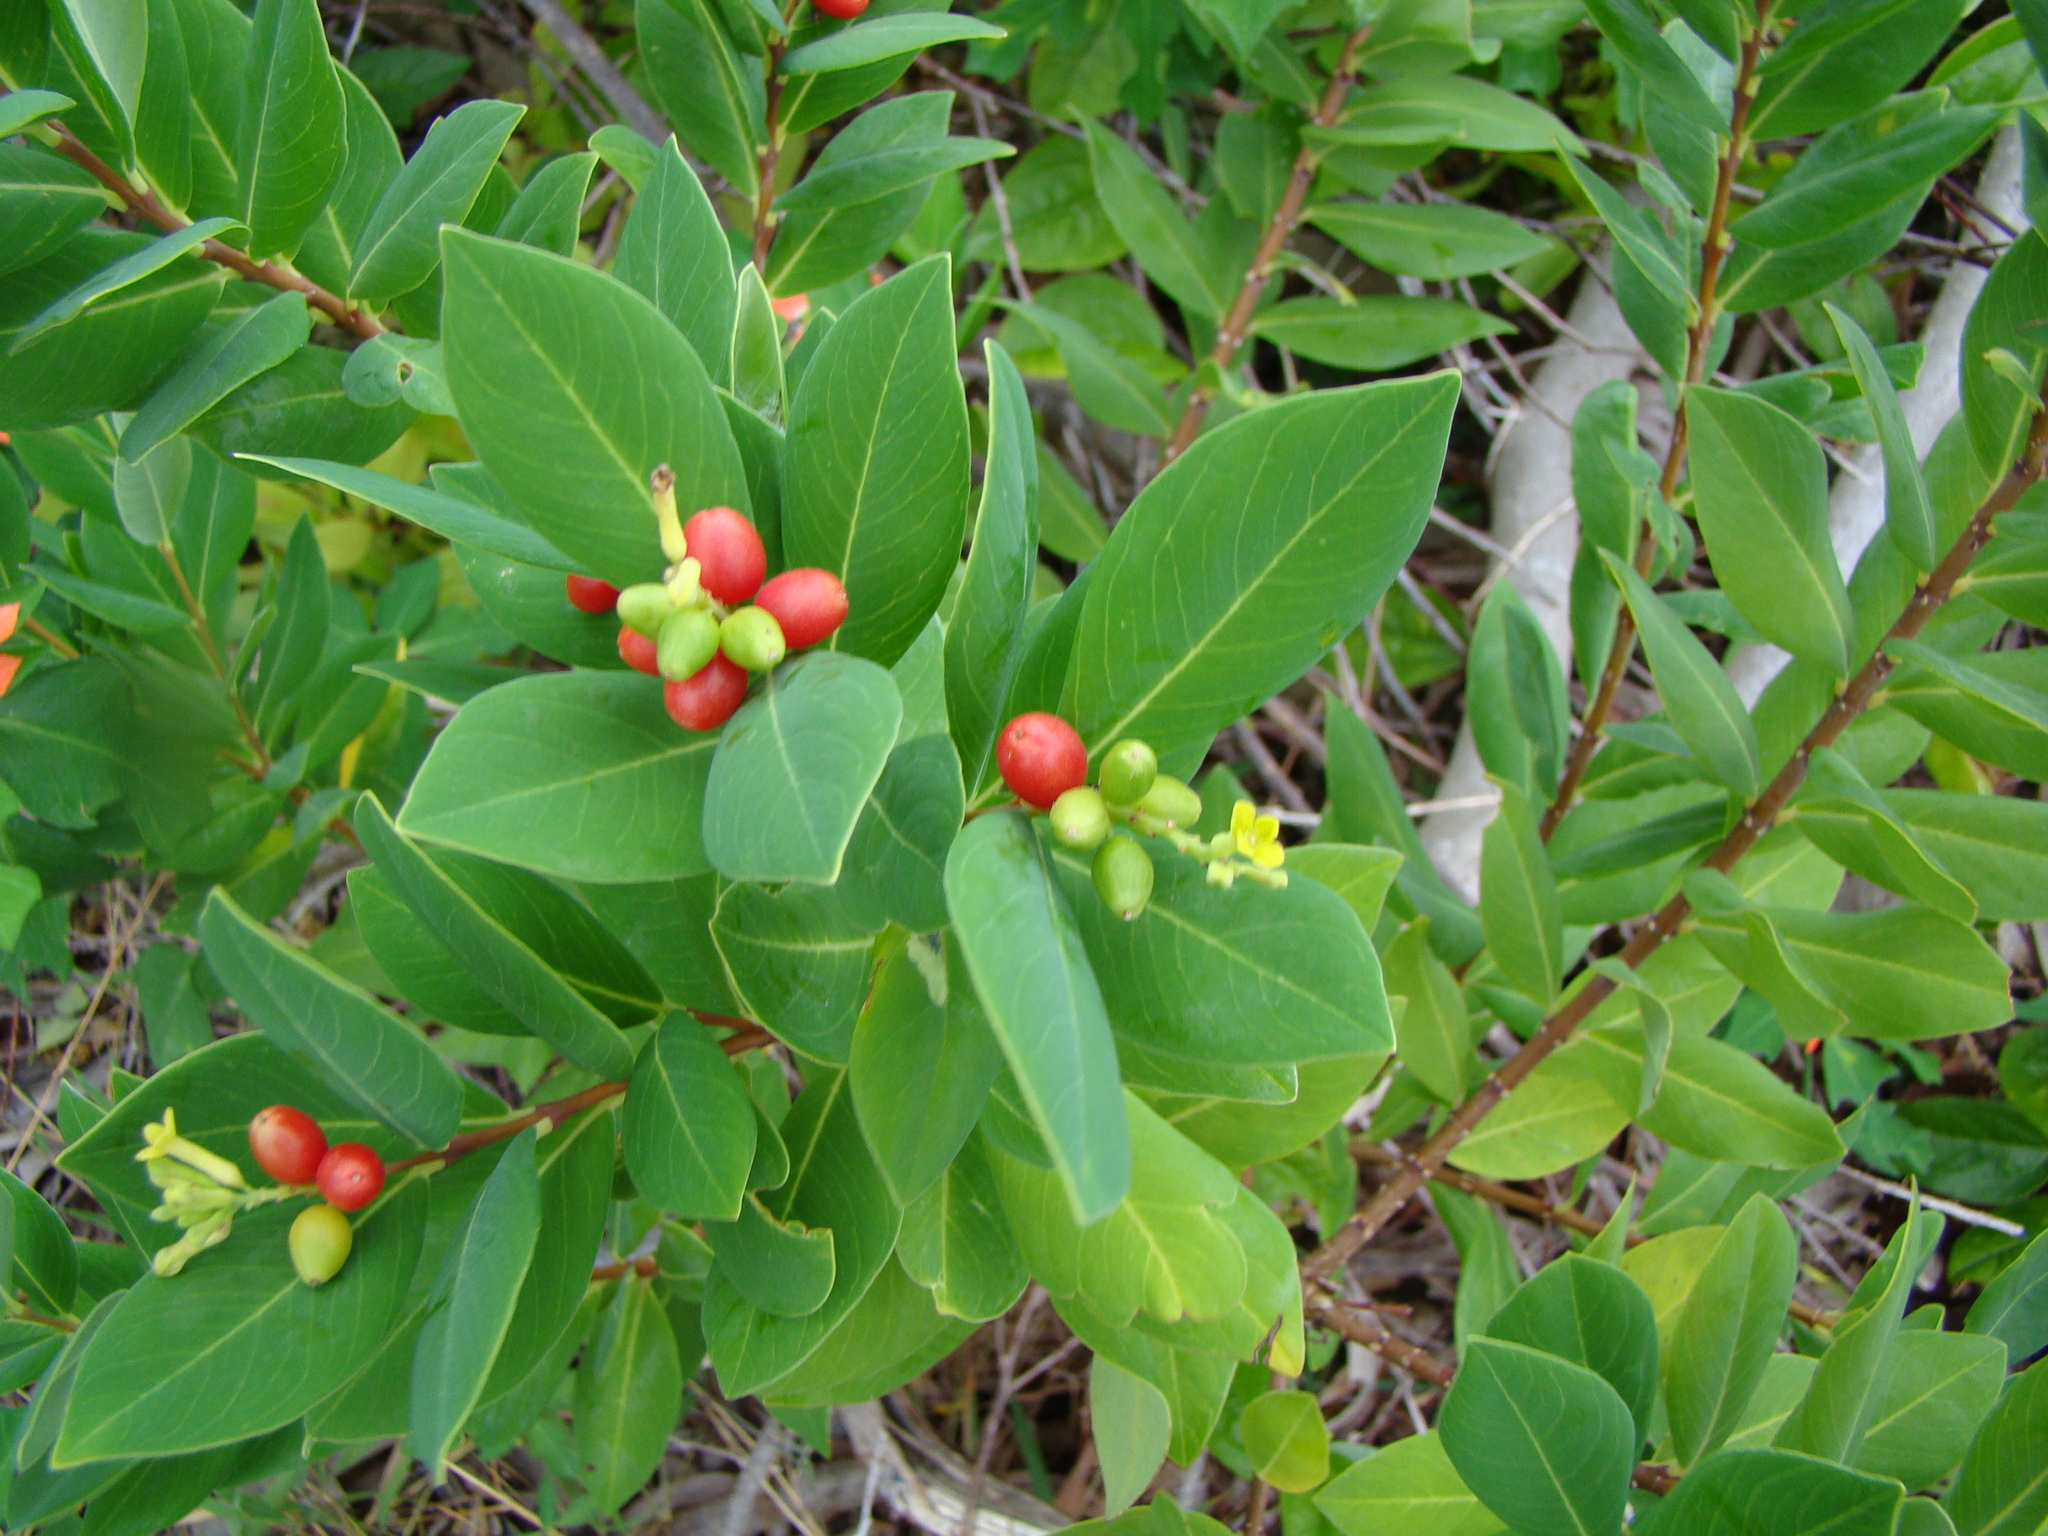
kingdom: Plantae
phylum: Tracheophyta
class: Magnoliopsida
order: Malvales
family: Thymelaeaceae
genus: Wikstroemia
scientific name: Wikstroemia indica
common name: Tiebush
